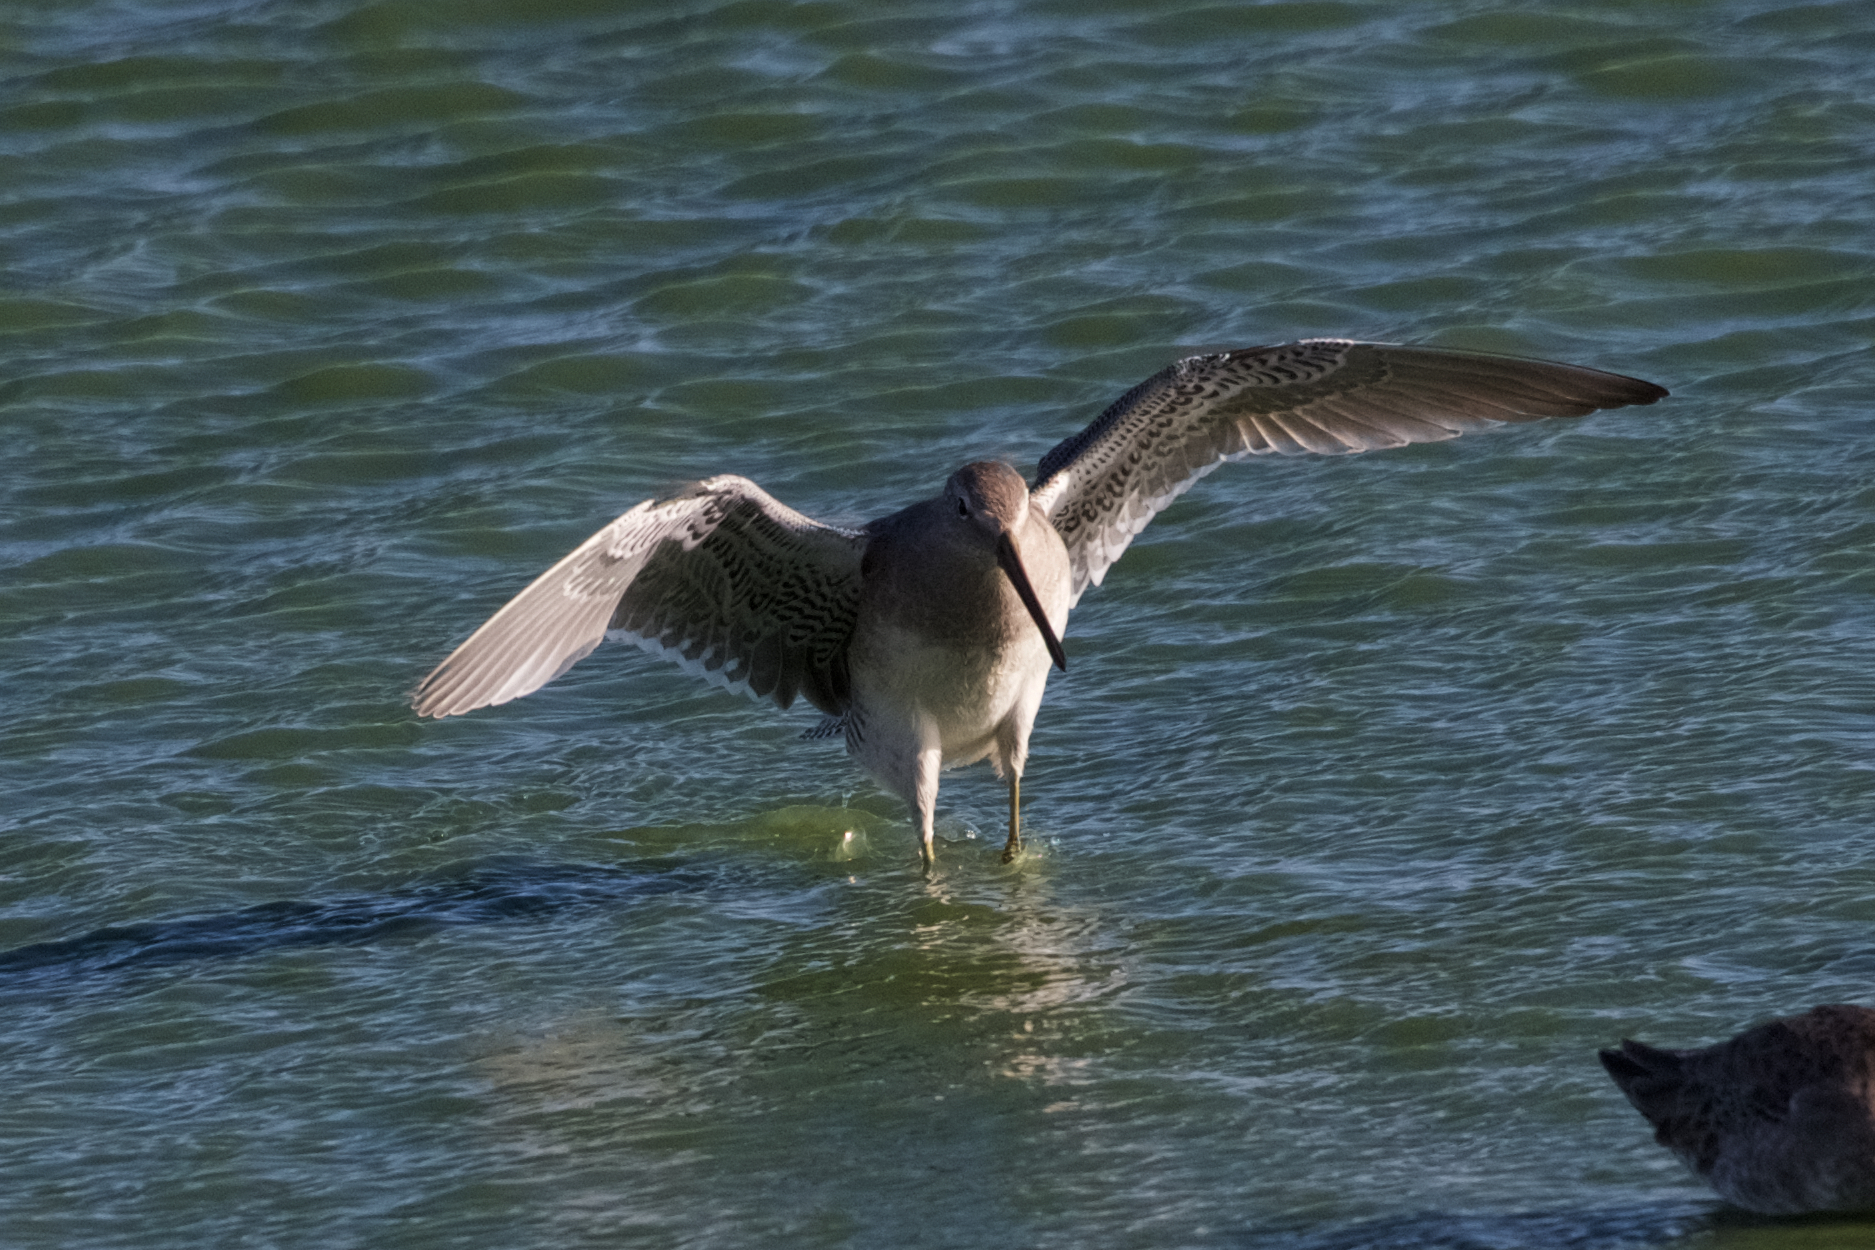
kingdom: Animalia
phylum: Chordata
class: Aves
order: Charadriiformes
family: Scolopacidae
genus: Limnodromus
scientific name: Limnodromus scolopaceus
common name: Long-billed dowitcher
